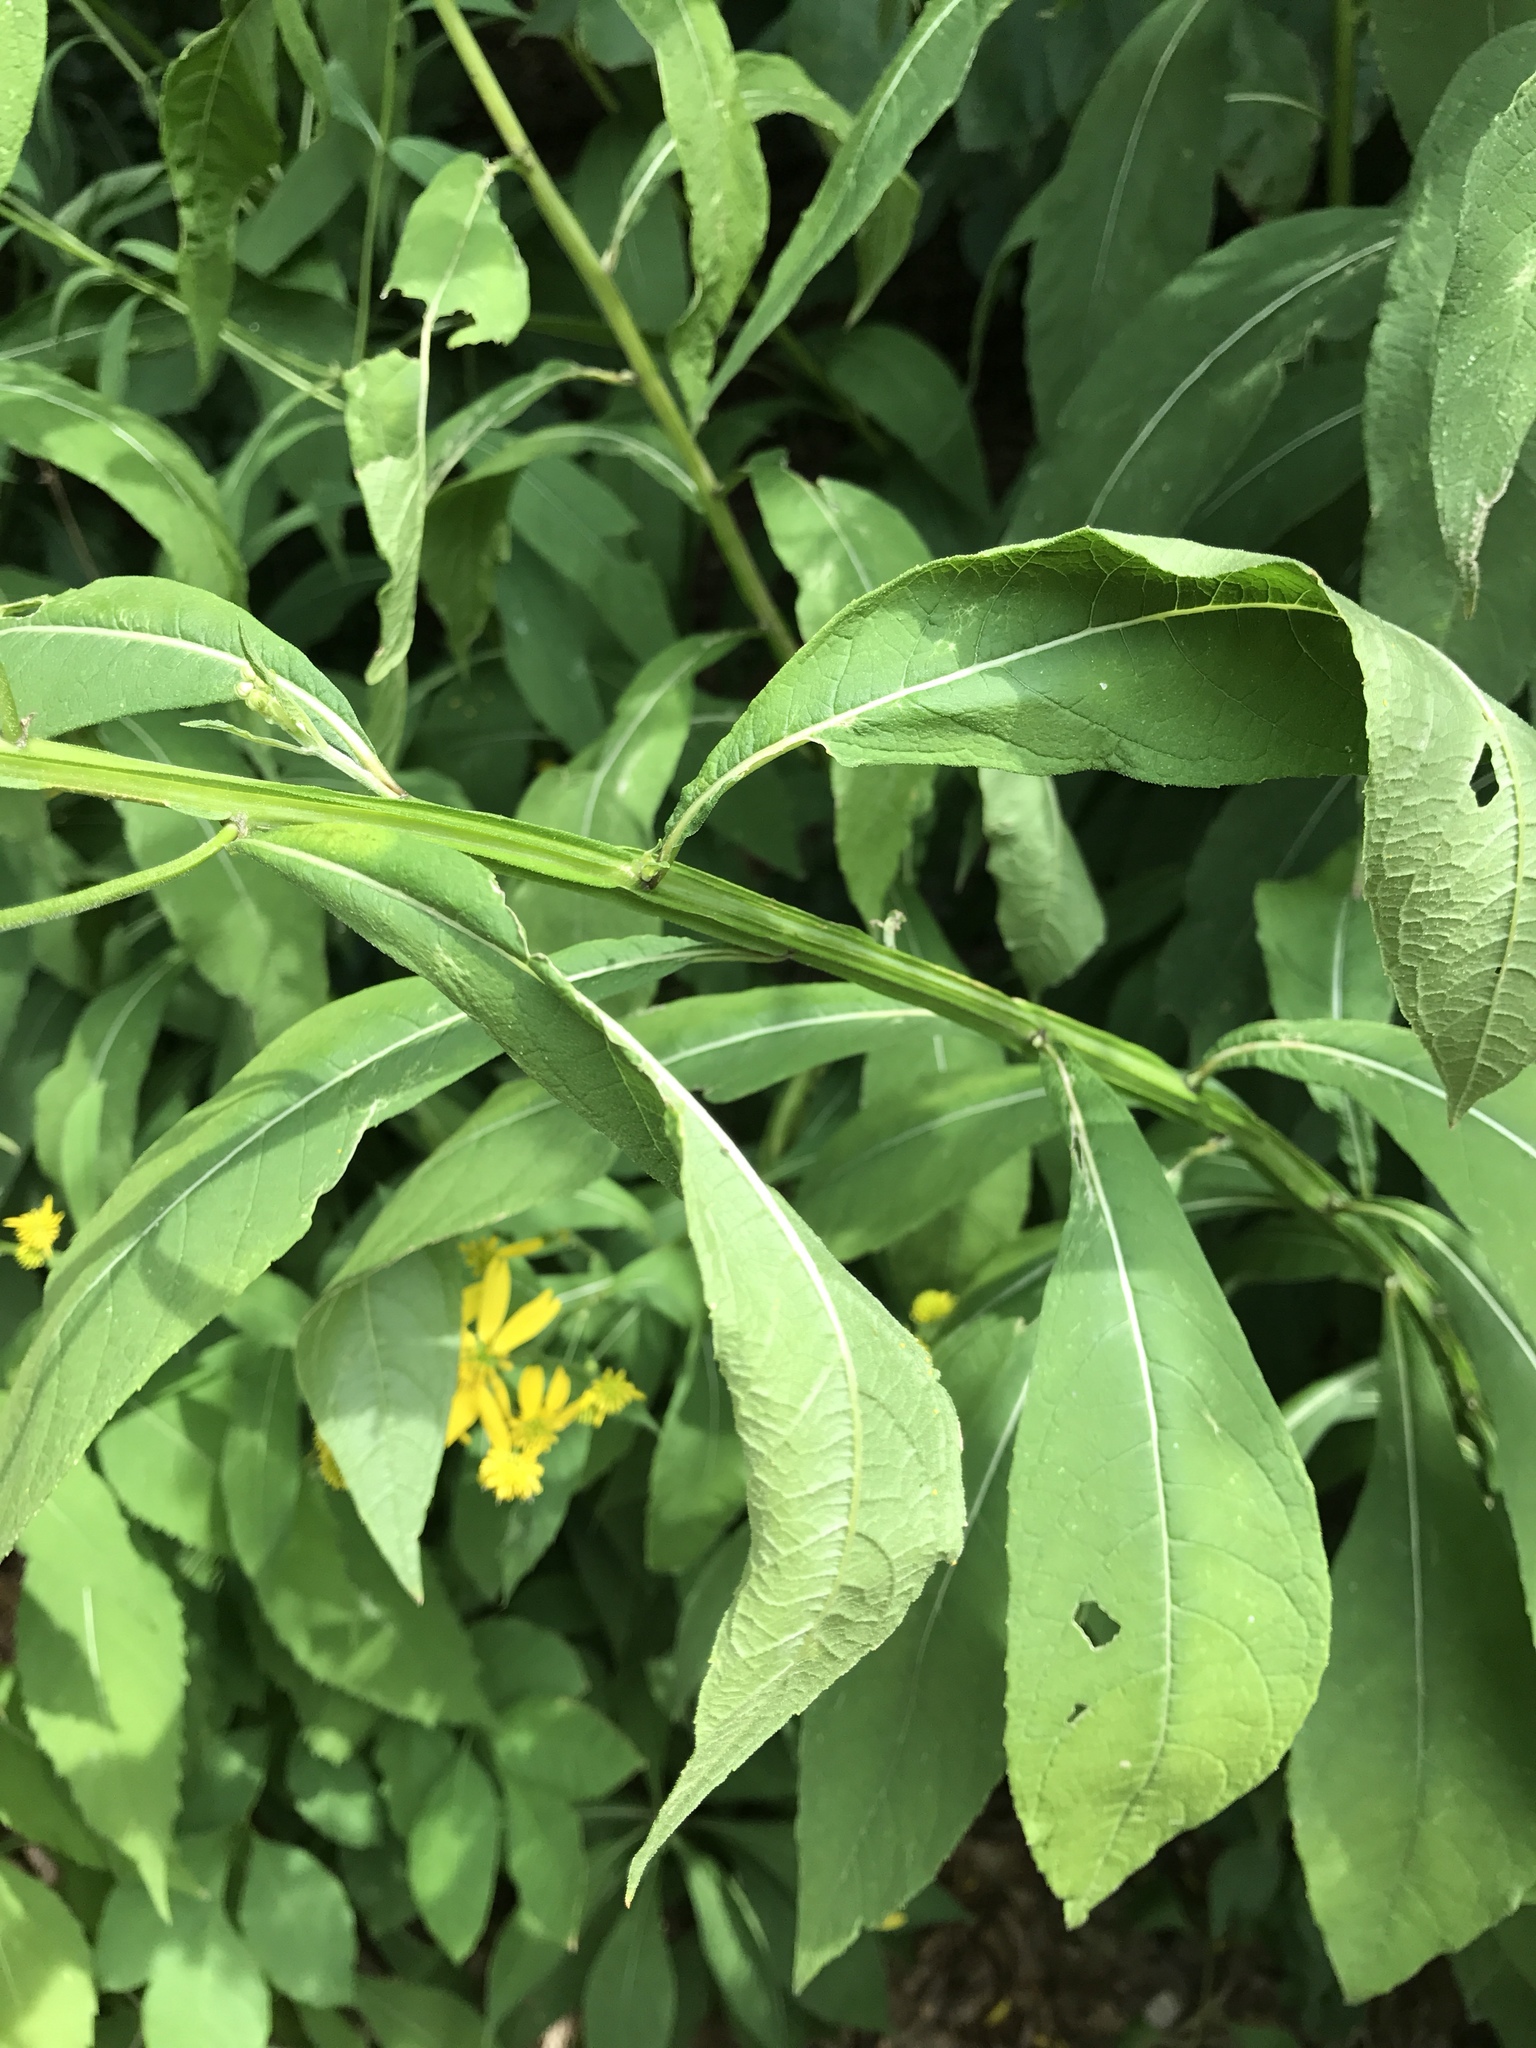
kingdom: Plantae
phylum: Tracheophyta
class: Magnoliopsida
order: Asterales
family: Asteraceae
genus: Verbesina
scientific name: Verbesina alternifolia
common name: Wingstem
